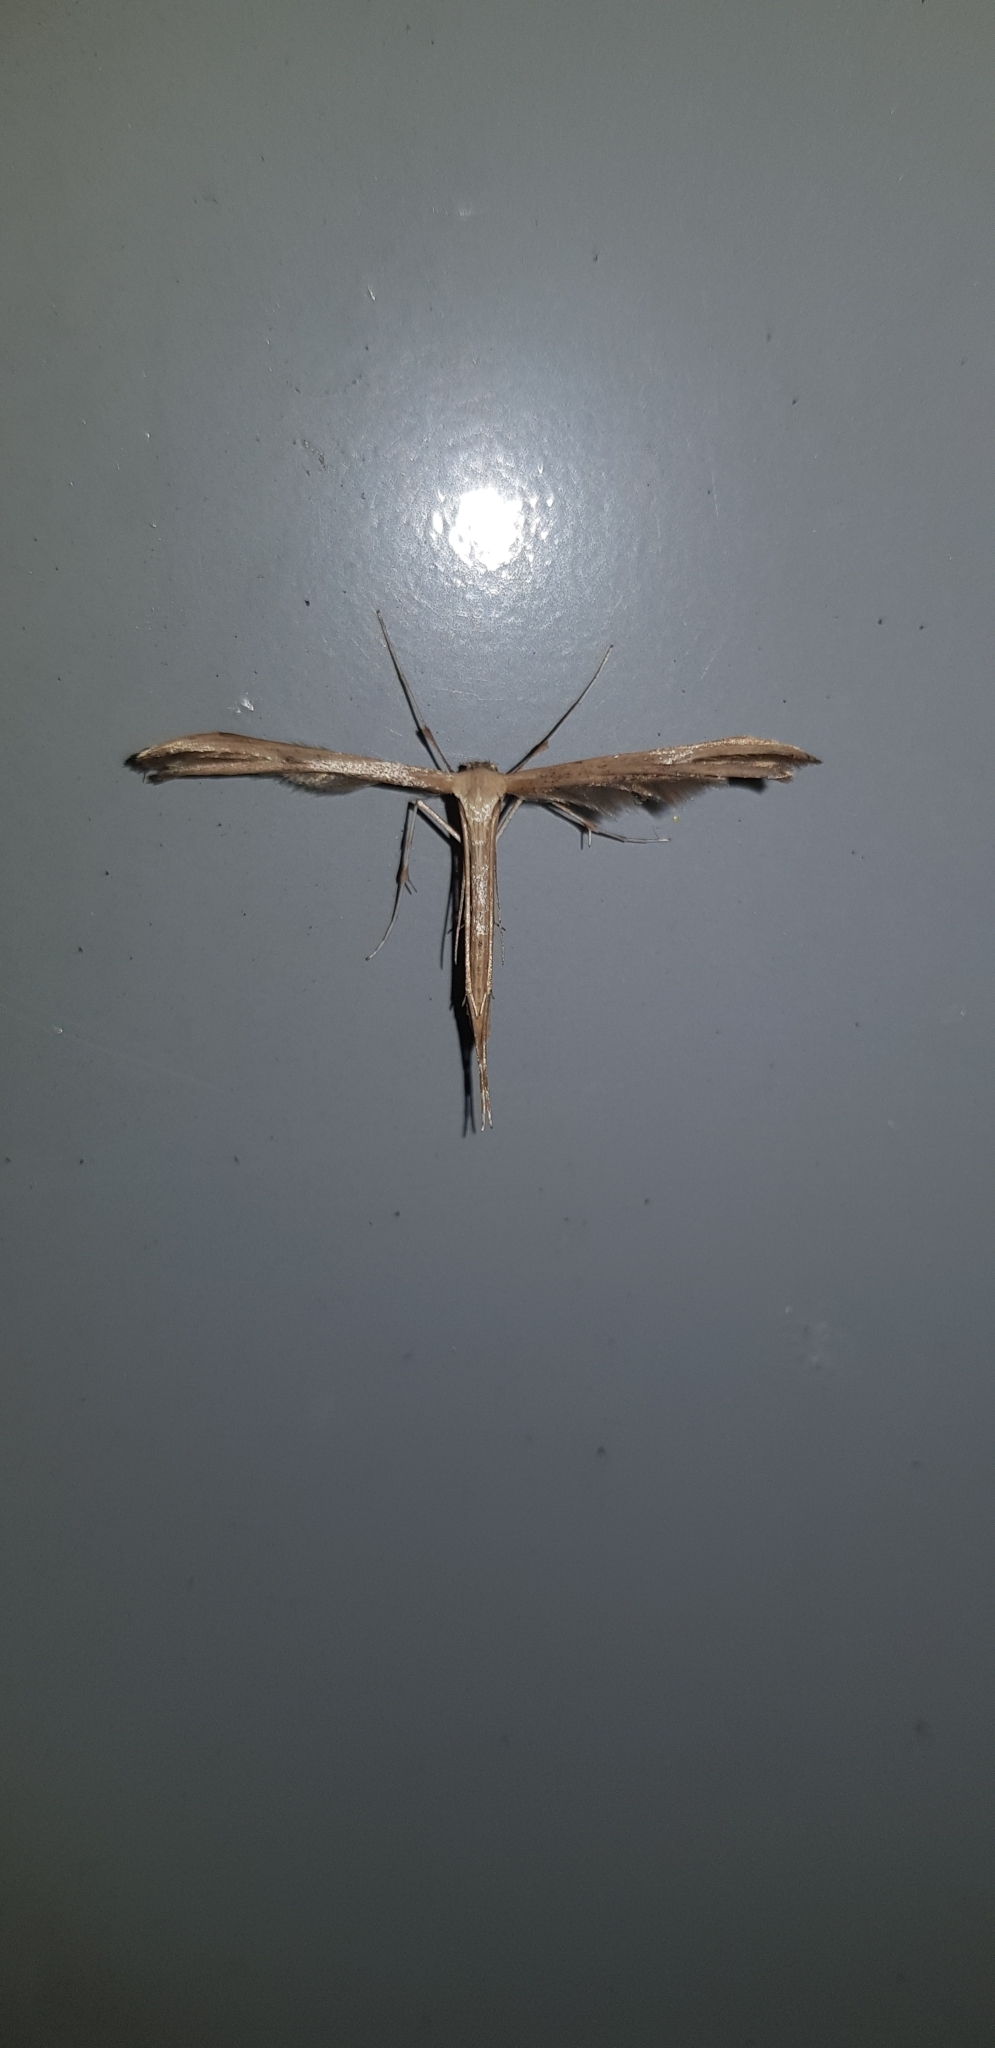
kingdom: Animalia
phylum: Arthropoda
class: Insecta
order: Lepidoptera
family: Pterophoridae
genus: Emmelina
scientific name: Emmelina monodactyla
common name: Common plume
